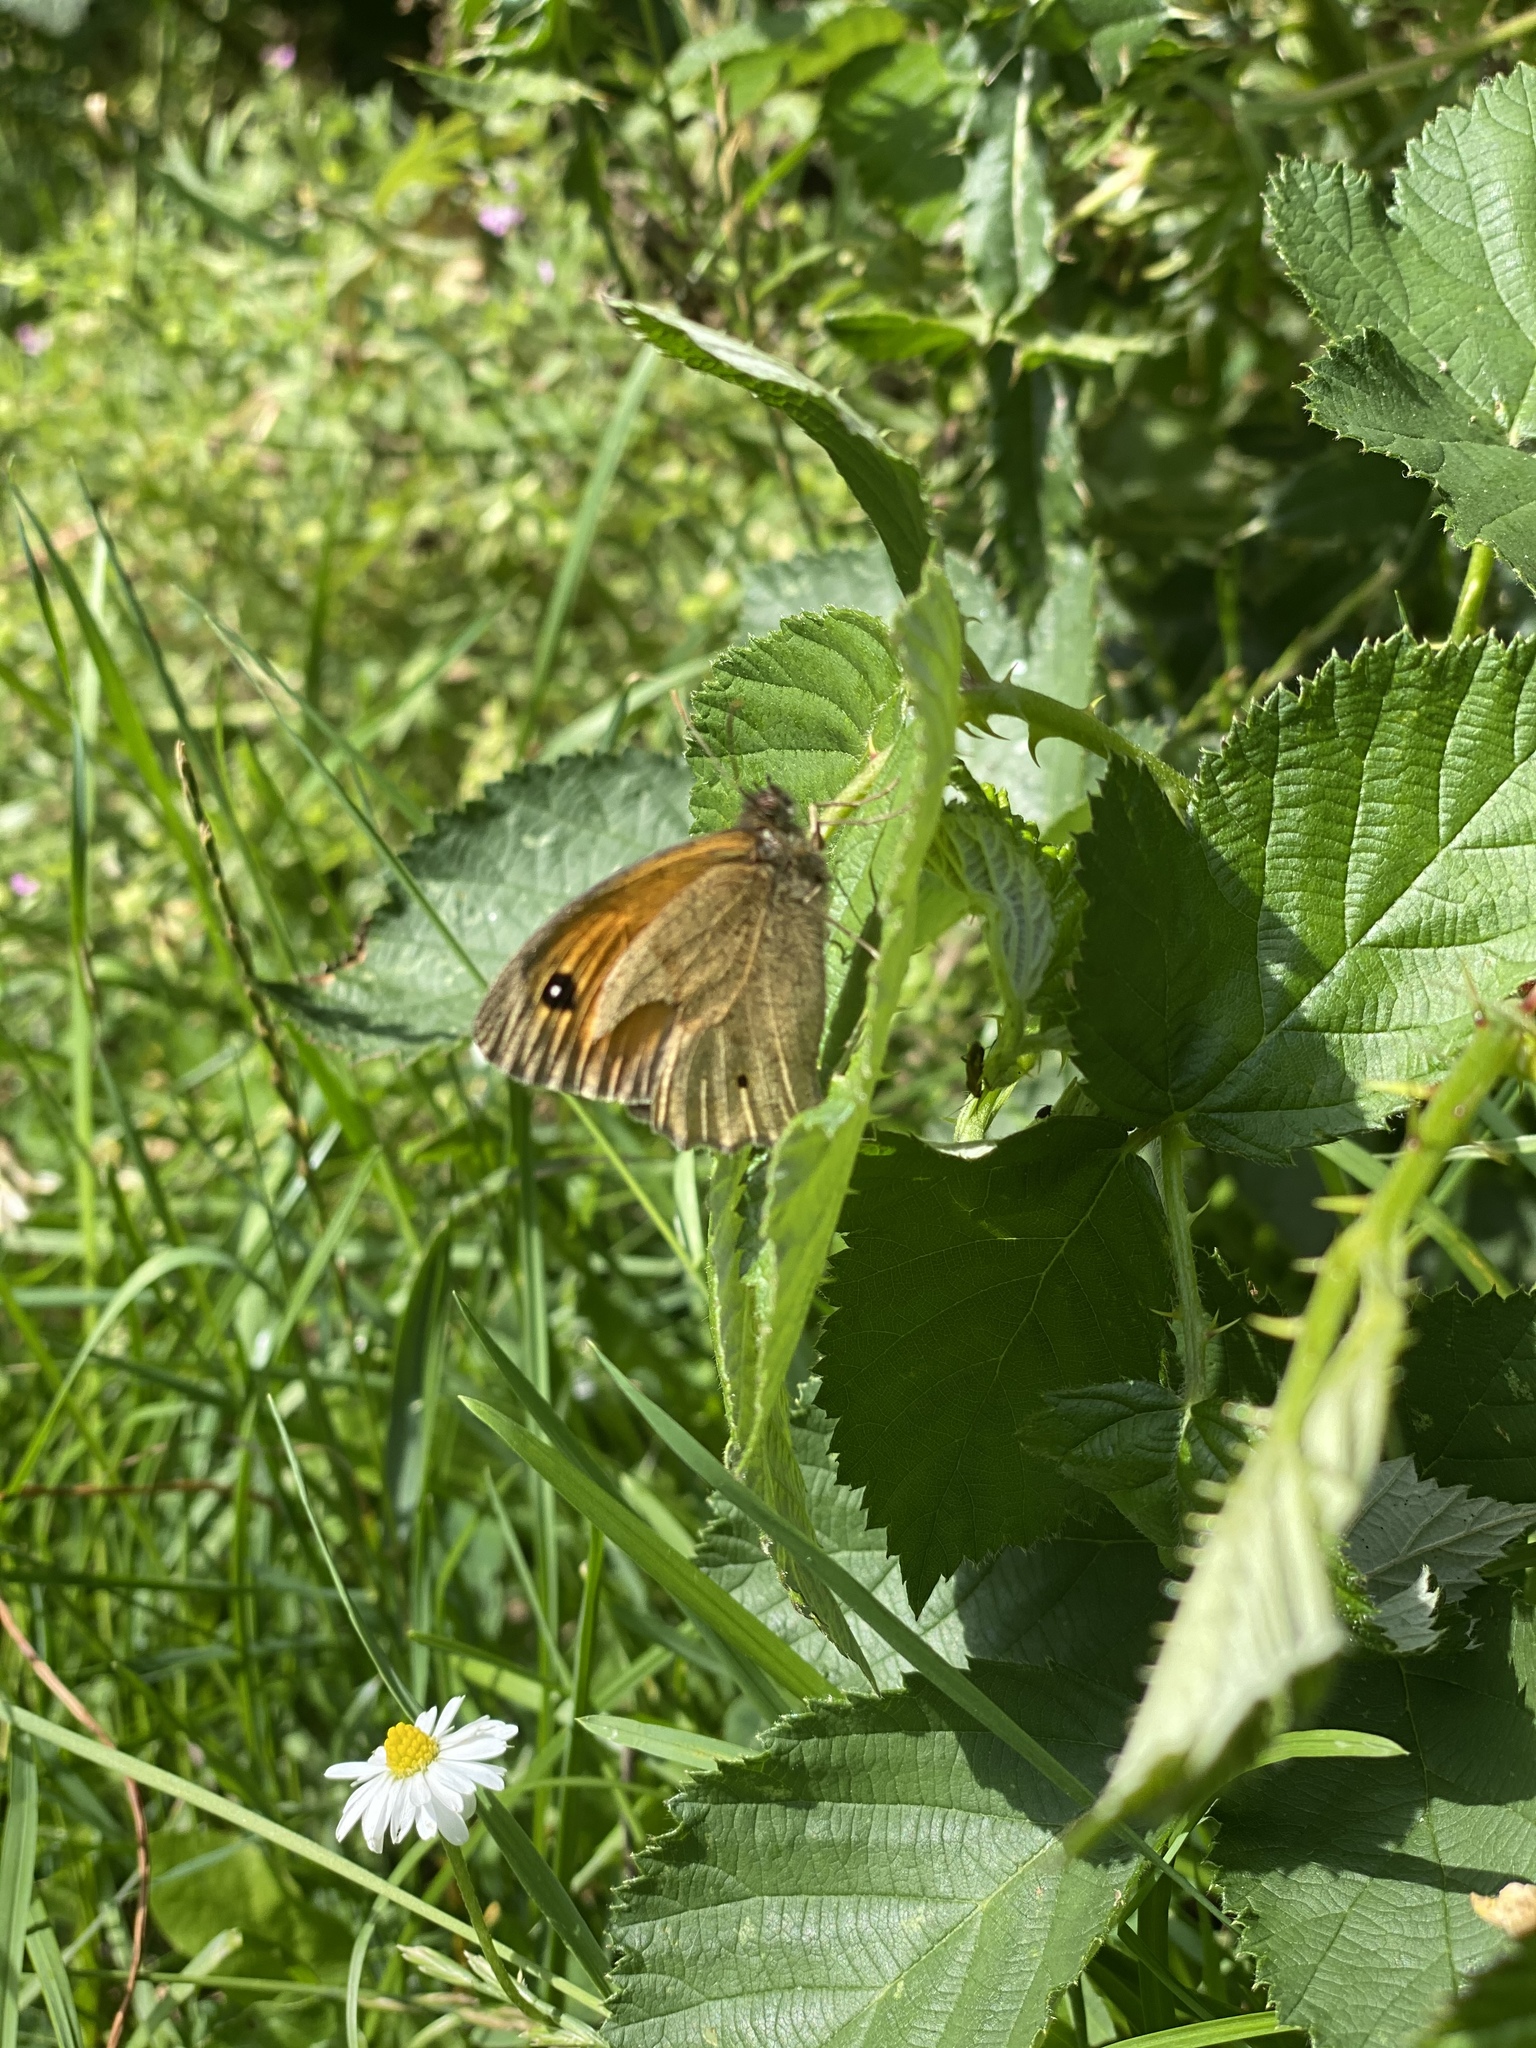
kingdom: Animalia
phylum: Arthropoda
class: Insecta
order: Lepidoptera
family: Nymphalidae
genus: Maniola
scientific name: Maniola jurtina
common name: Meadow brown
